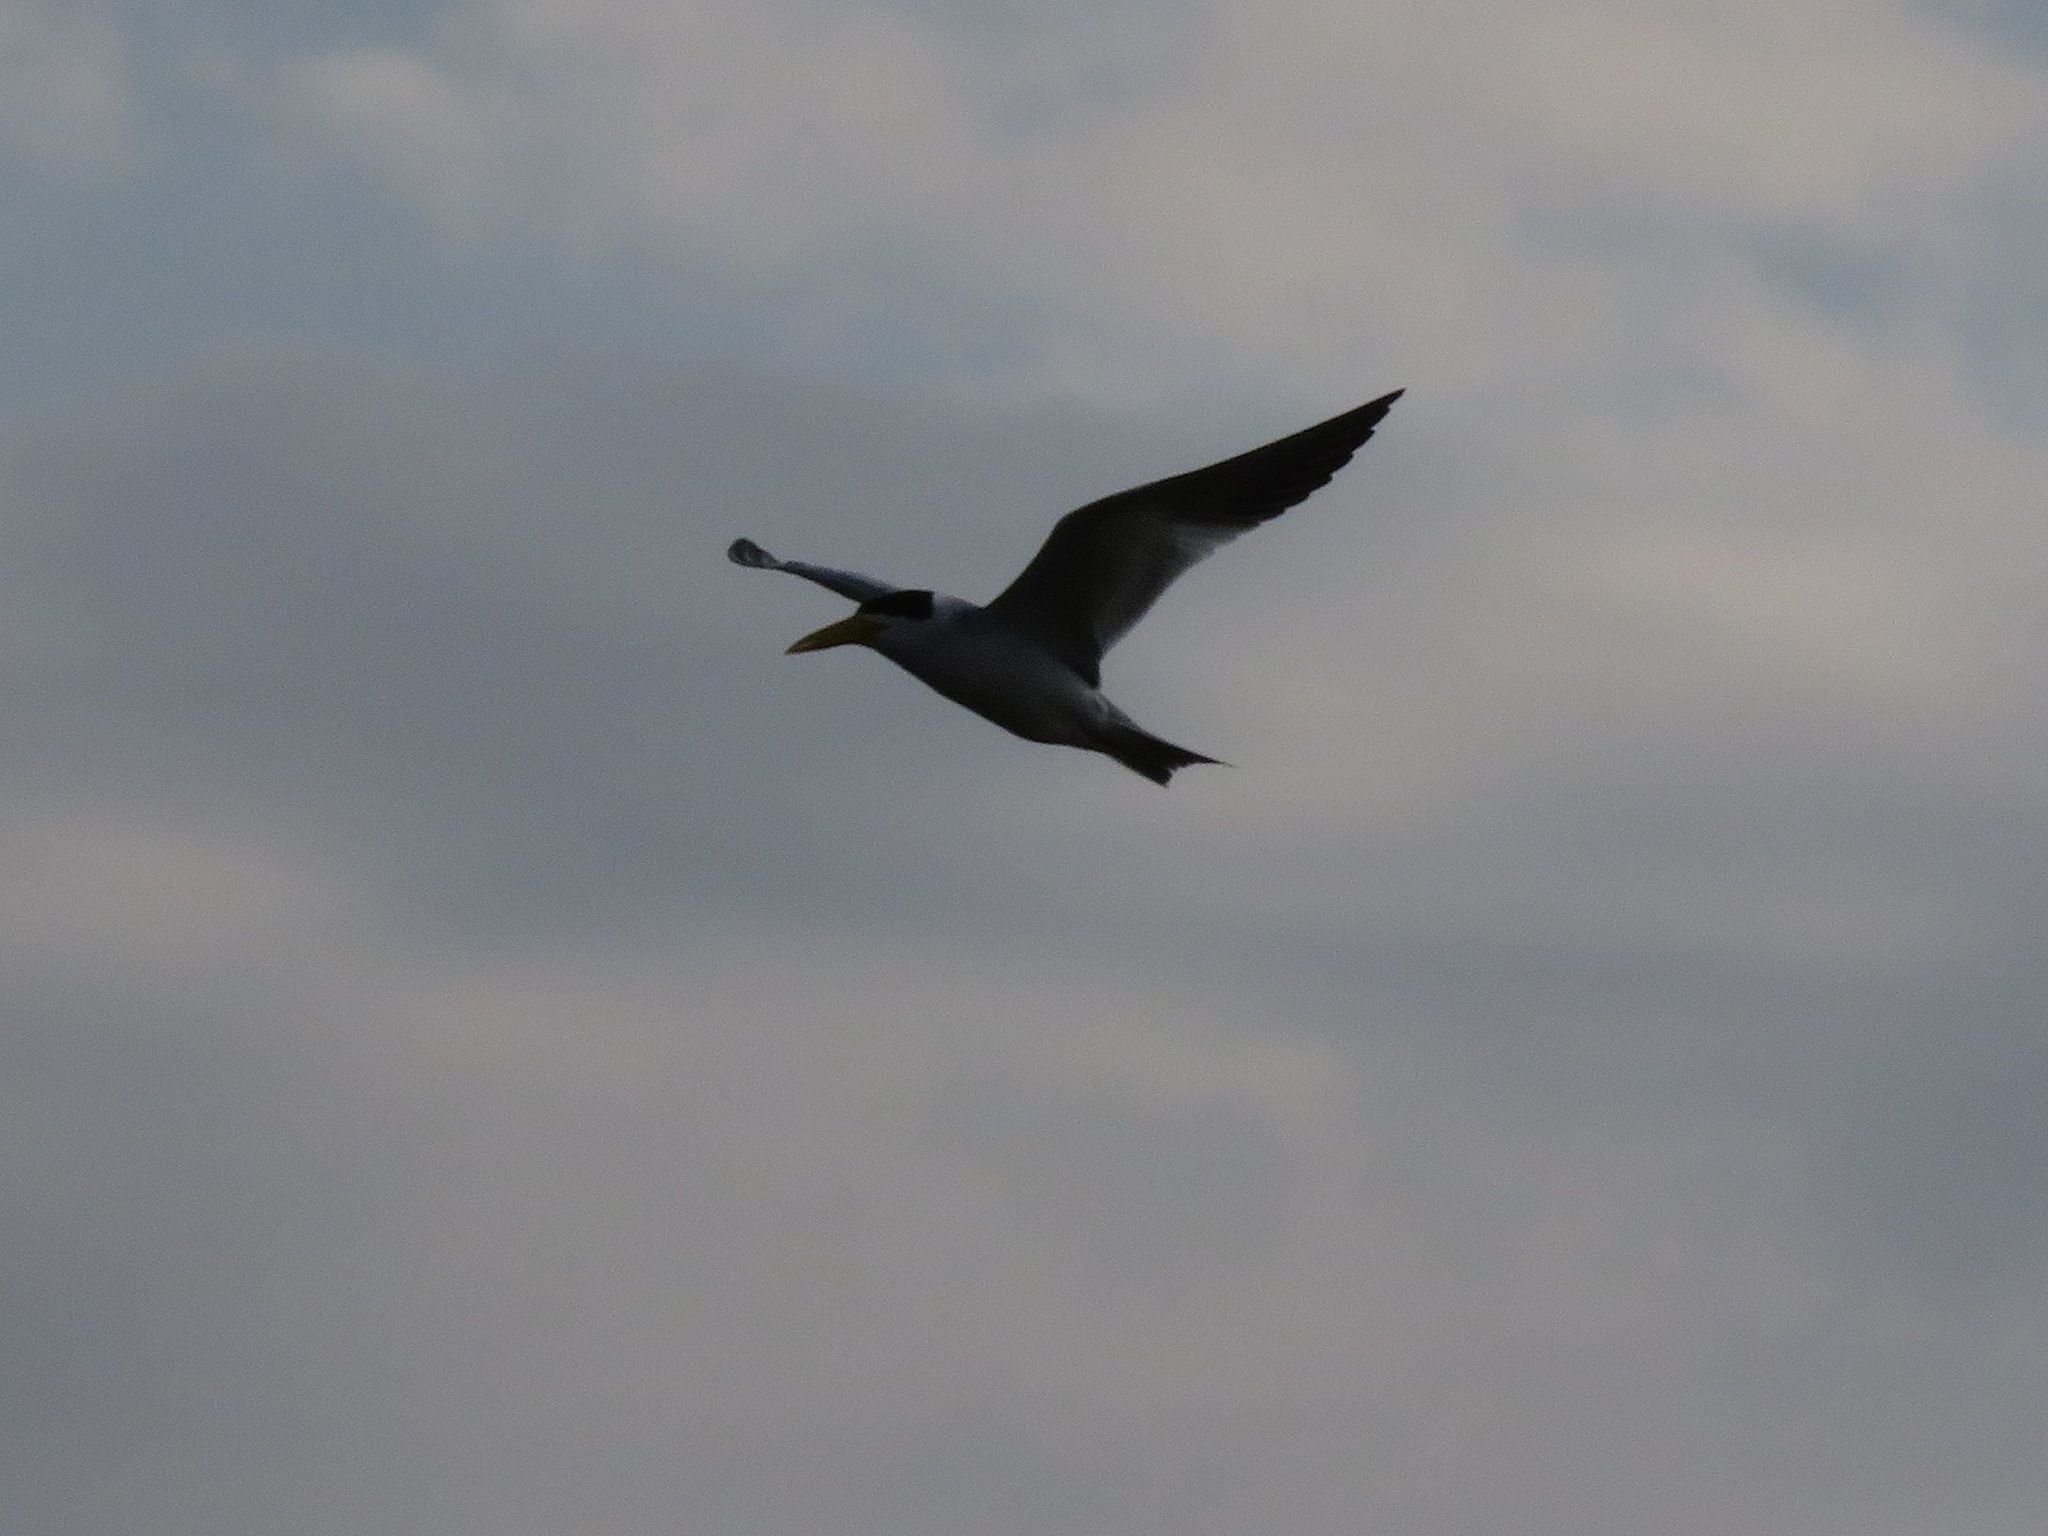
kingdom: Animalia
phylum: Chordata
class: Aves
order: Charadriiformes
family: Laridae
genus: Phaetusa
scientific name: Phaetusa simplex
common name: Large-billed tern
